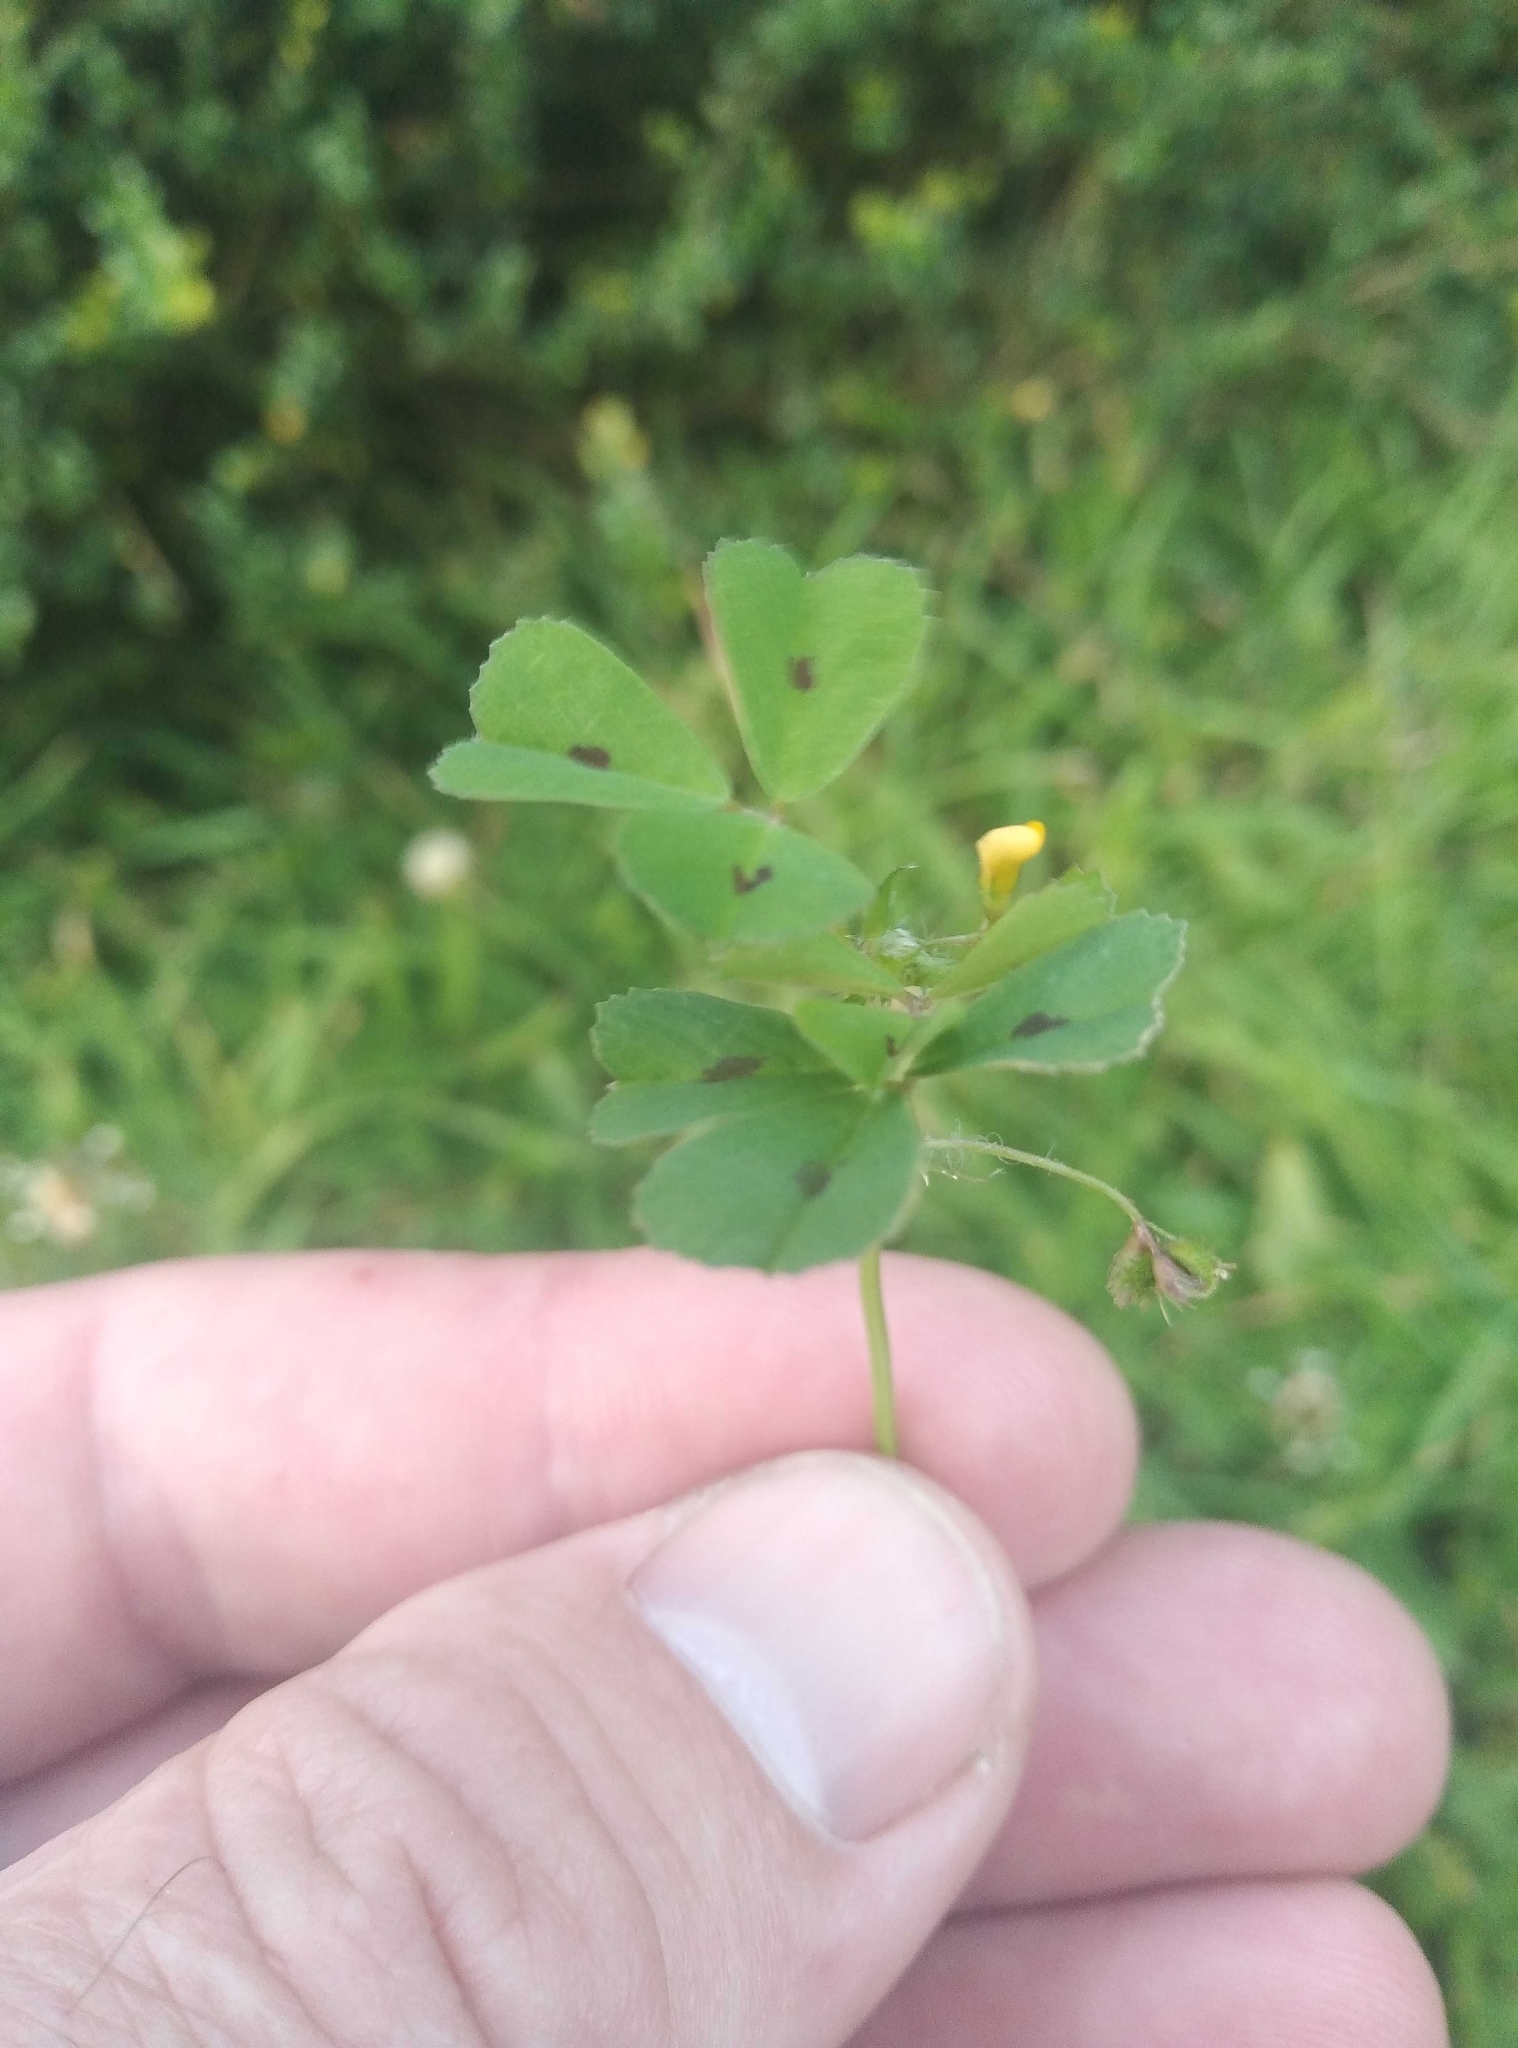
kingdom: Plantae
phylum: Tracheophyta
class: Magnoliopsida
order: Fabales
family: Fabaceae
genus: Medicago
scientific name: Medicago arabica
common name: Spotted medick
